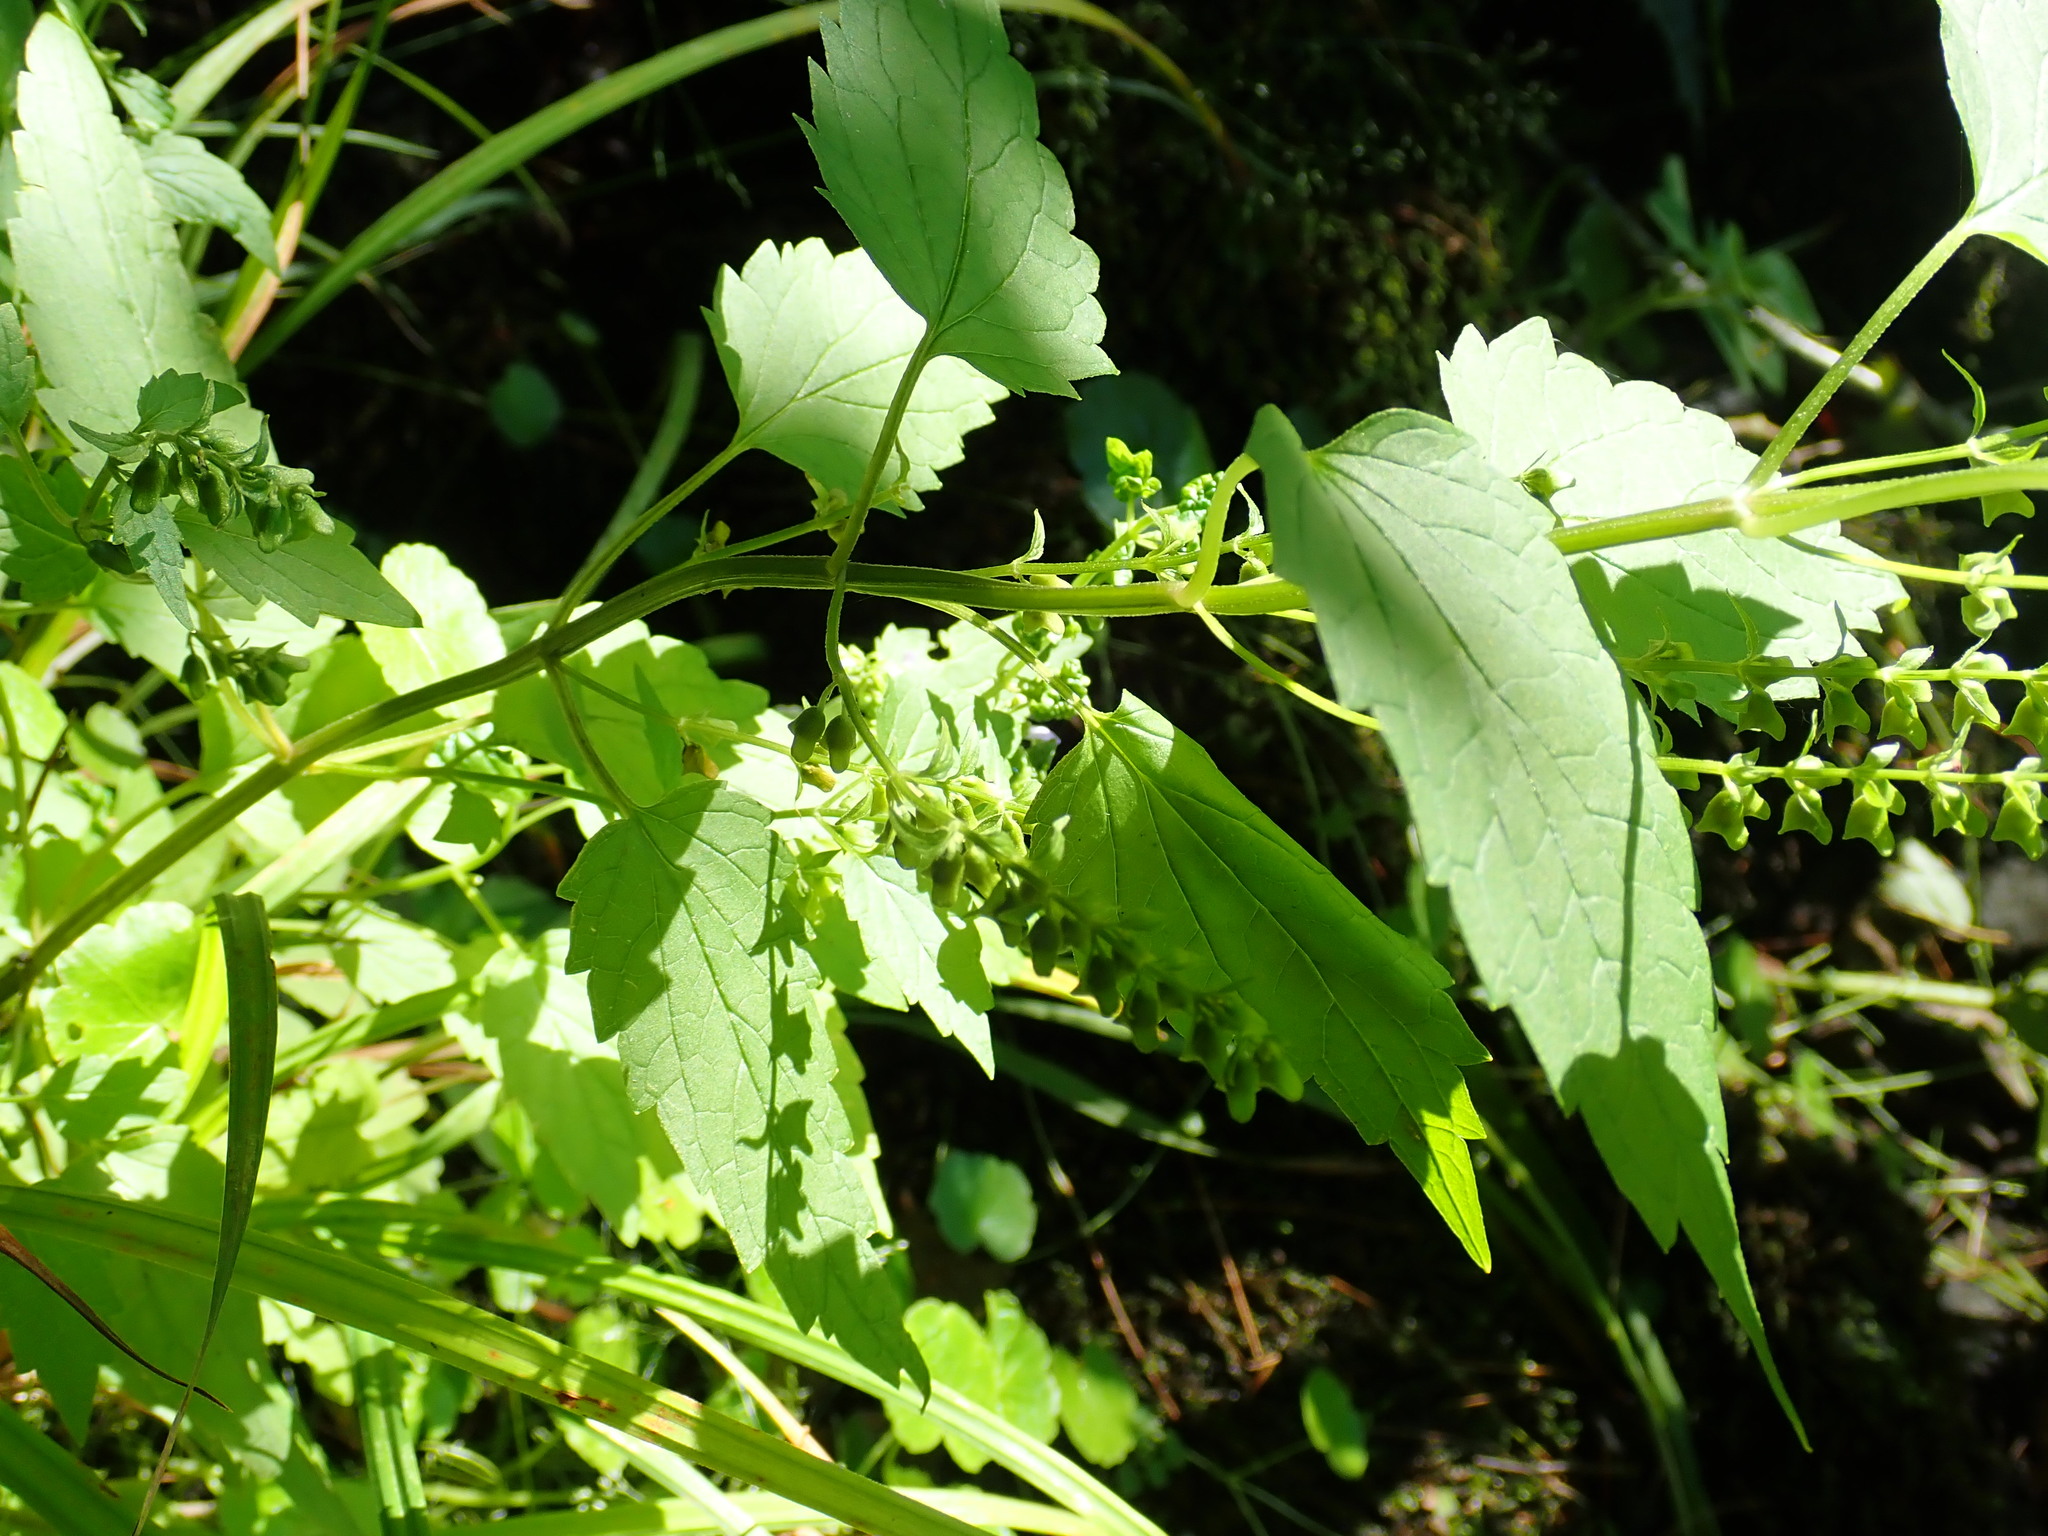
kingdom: Plantae
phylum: Tracheophyta
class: Magnoliopsida
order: Lamiales
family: Lamiaceae
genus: Scutellaria
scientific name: Scutellaria lateriflora
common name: Blue skullcap
